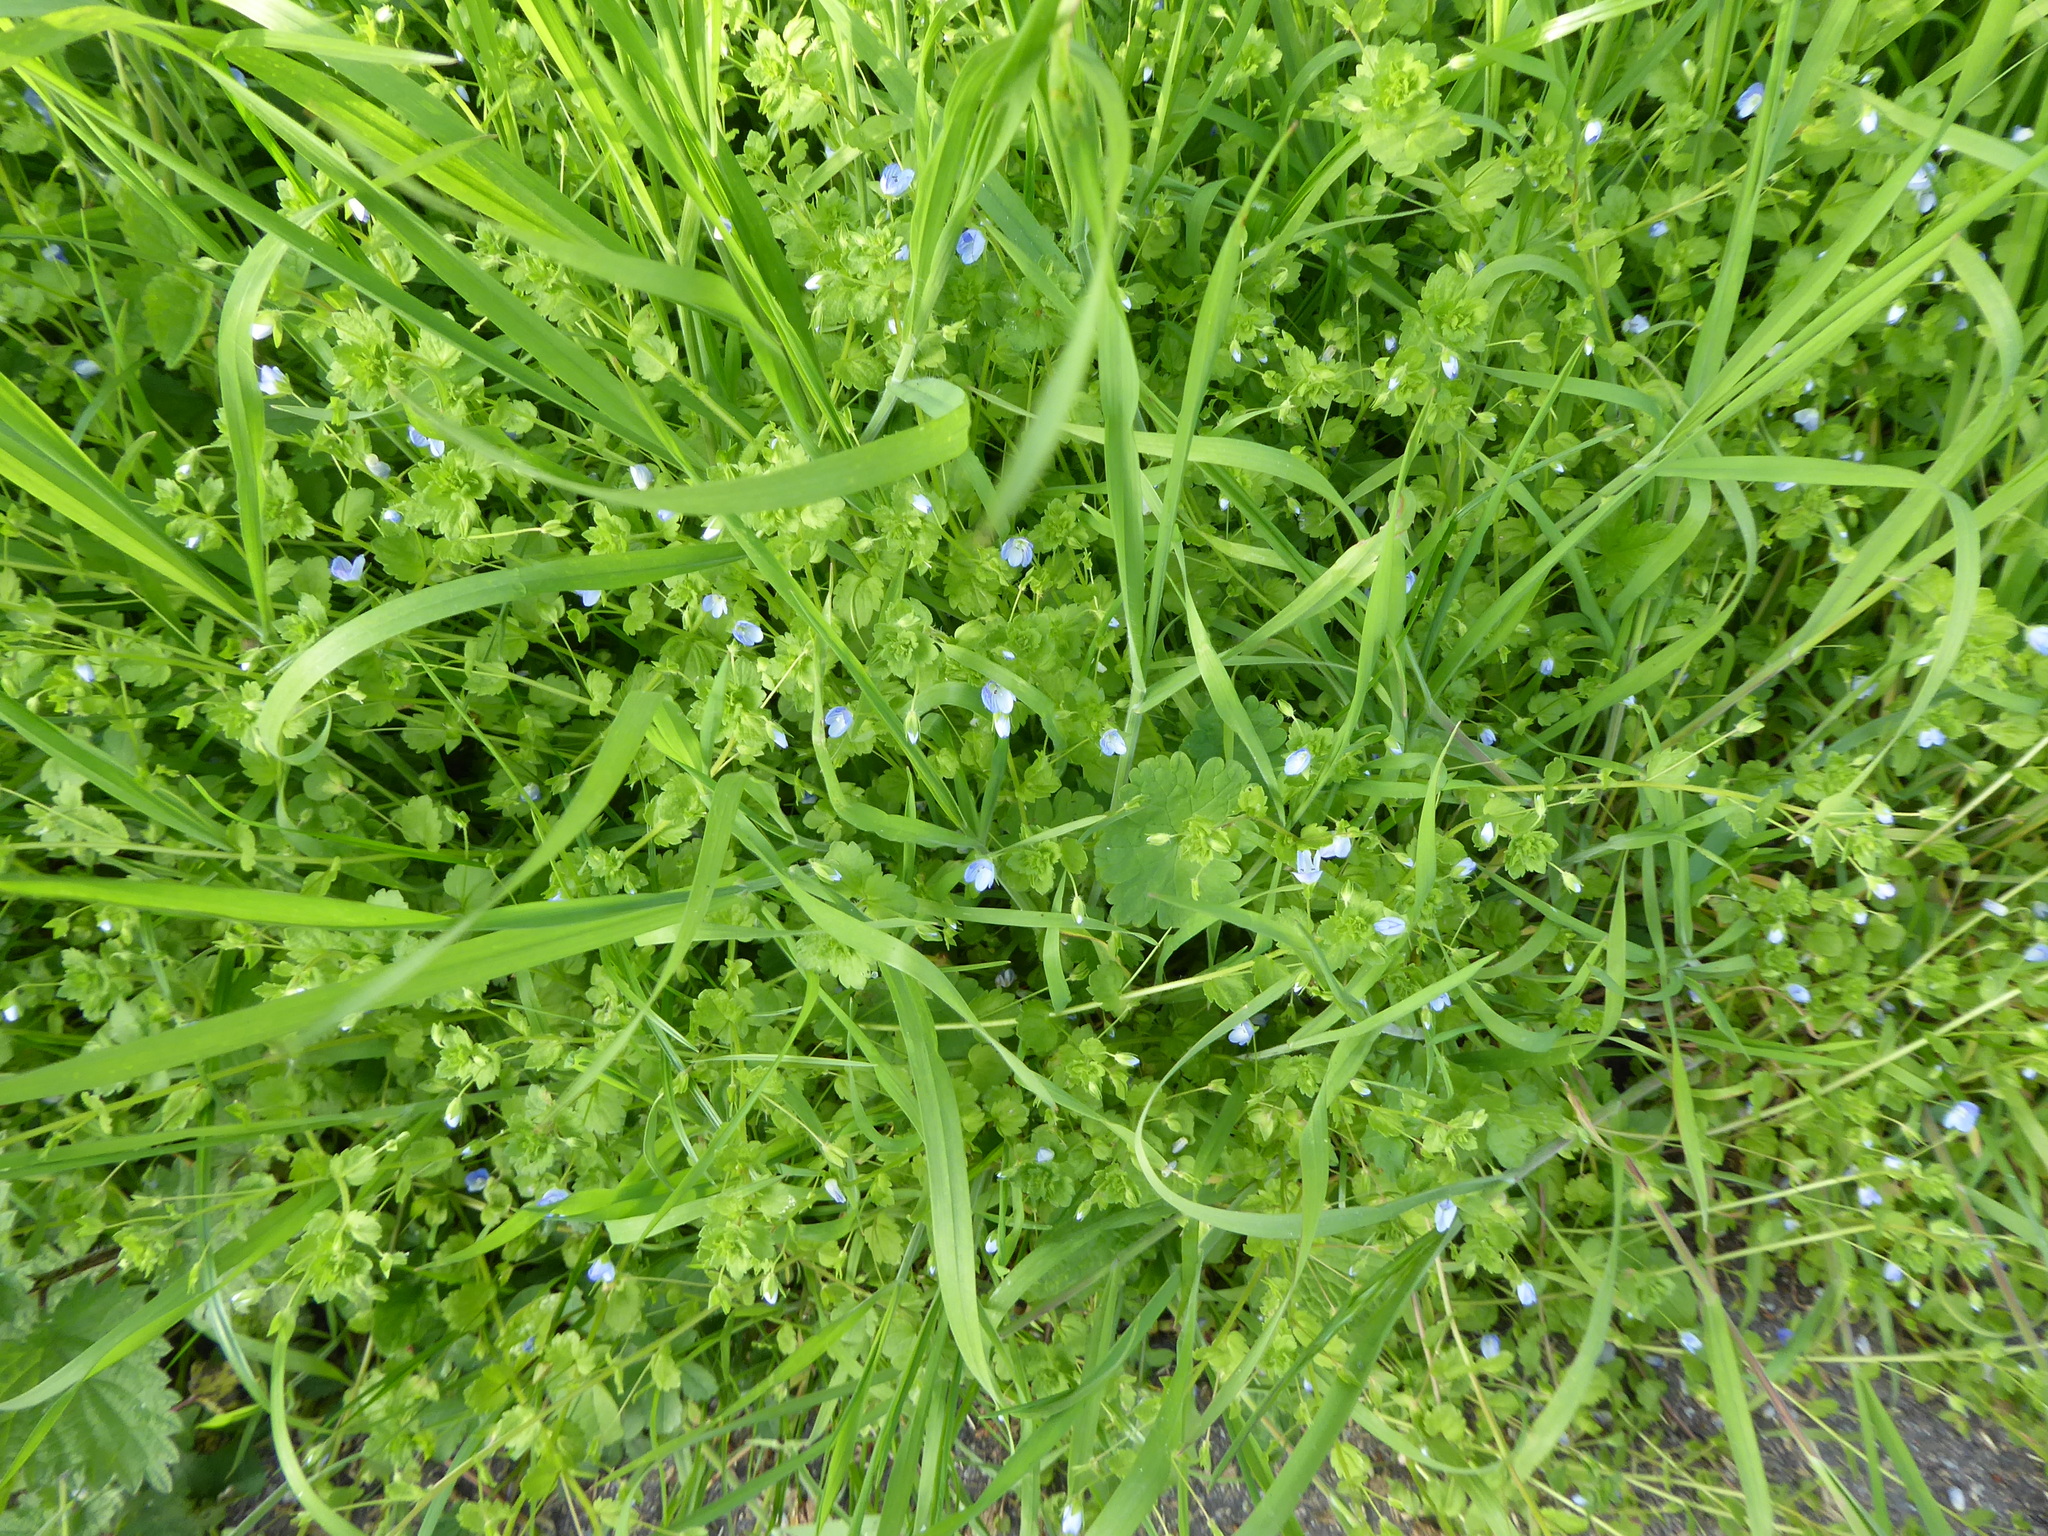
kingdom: Plantae
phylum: Tracheophyta
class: Magnoliopsida
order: Lamiales
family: Plantaginaceae
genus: Veronica
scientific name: Veronica persica
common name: Common field-speedwell
